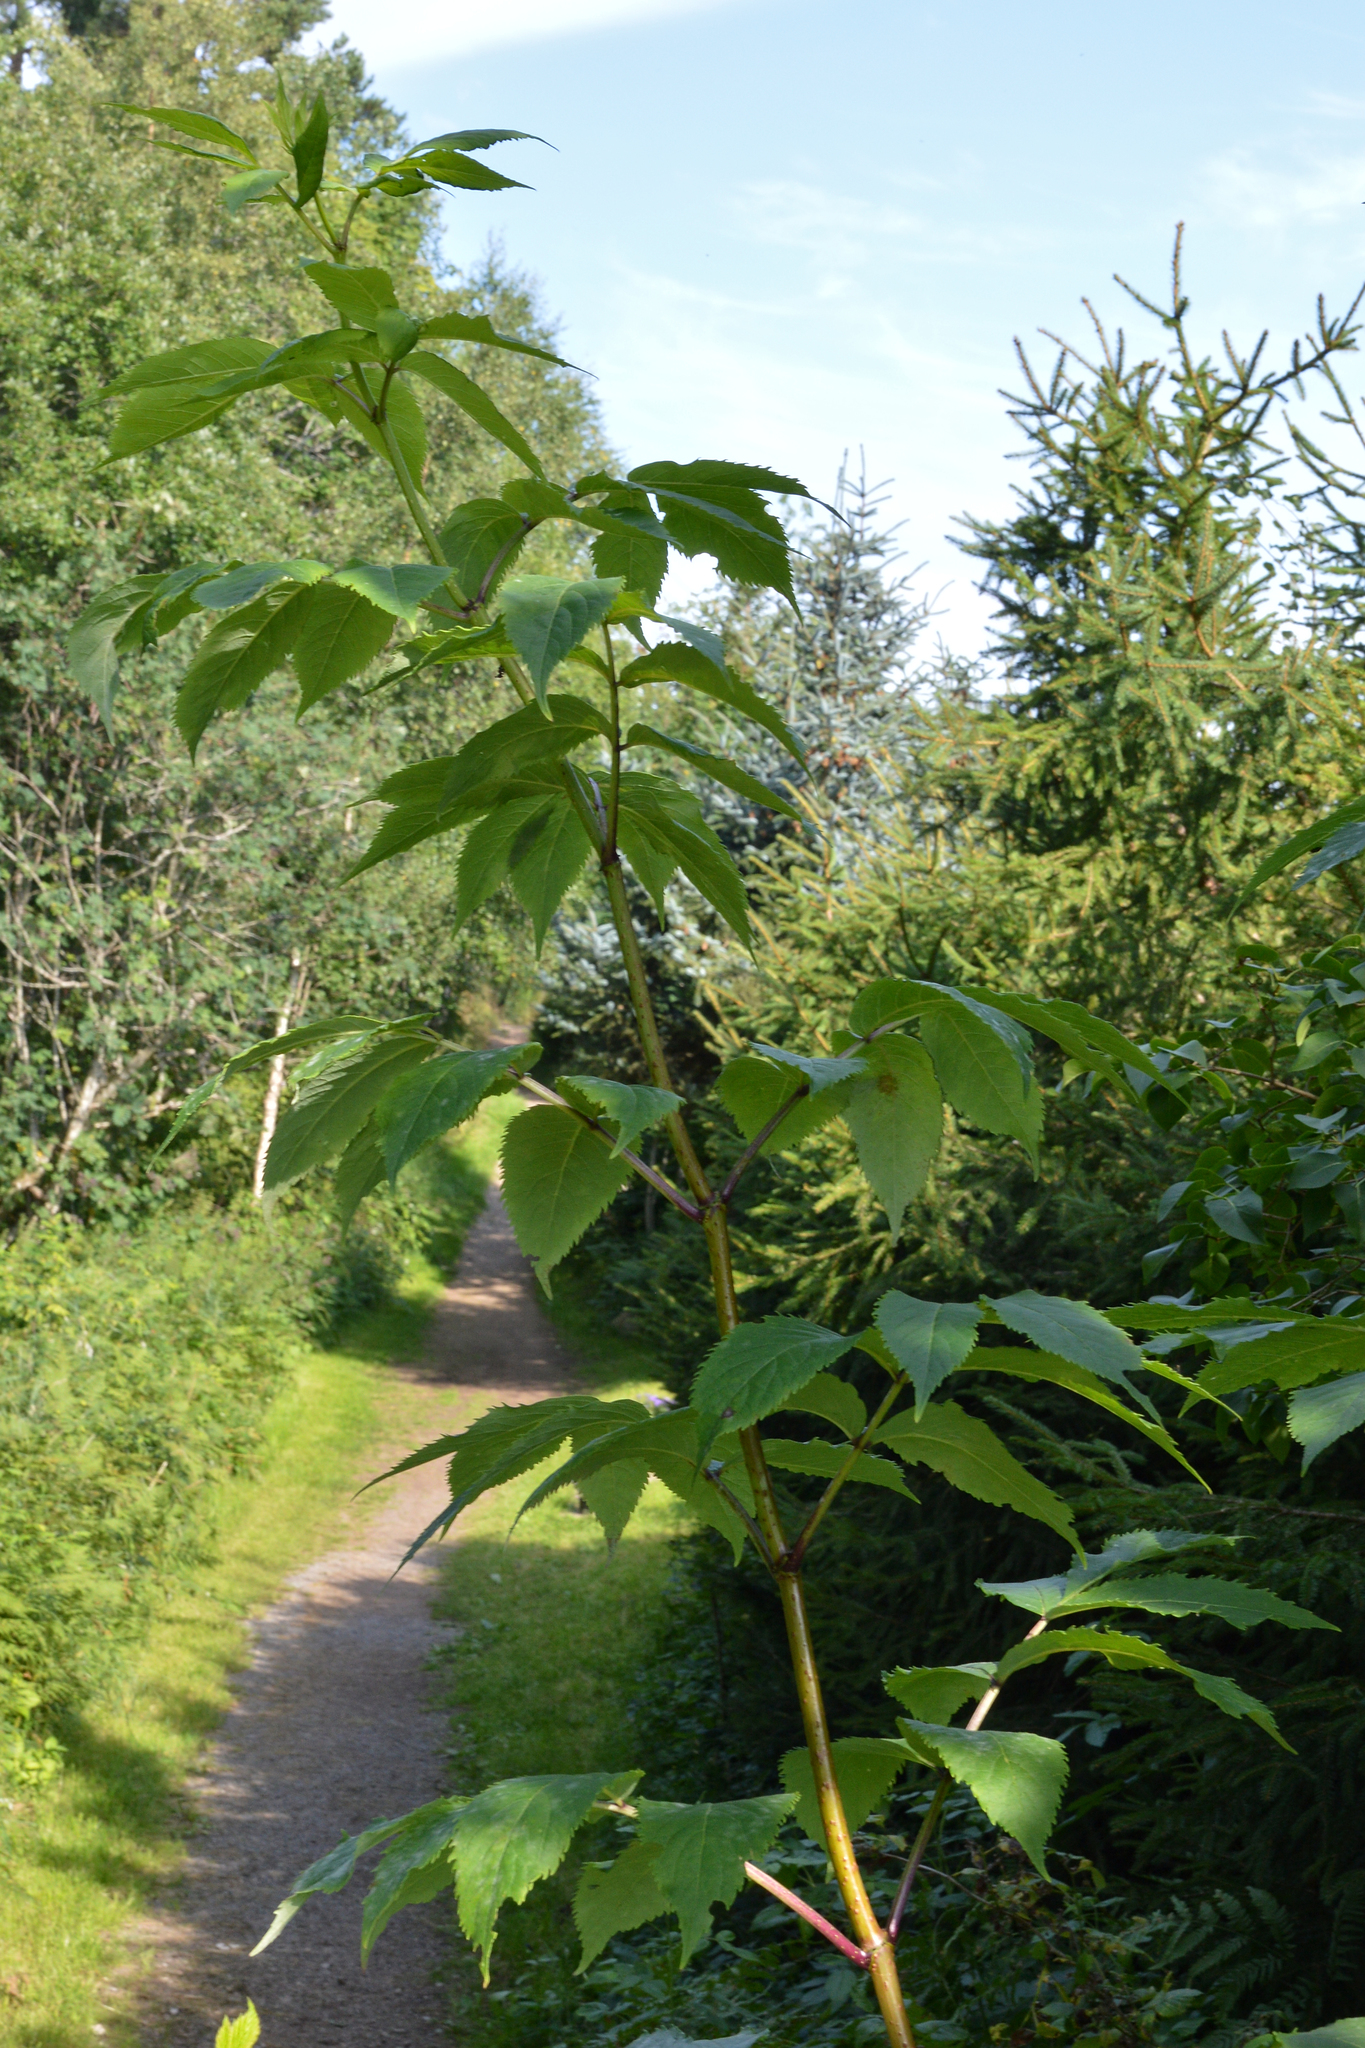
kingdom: Plantae
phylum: Tracheophyta
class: Magnoliopsida
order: Dipsacales
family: Viburnaceae
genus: Sambucus
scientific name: Sambucus nigra
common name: Elder
